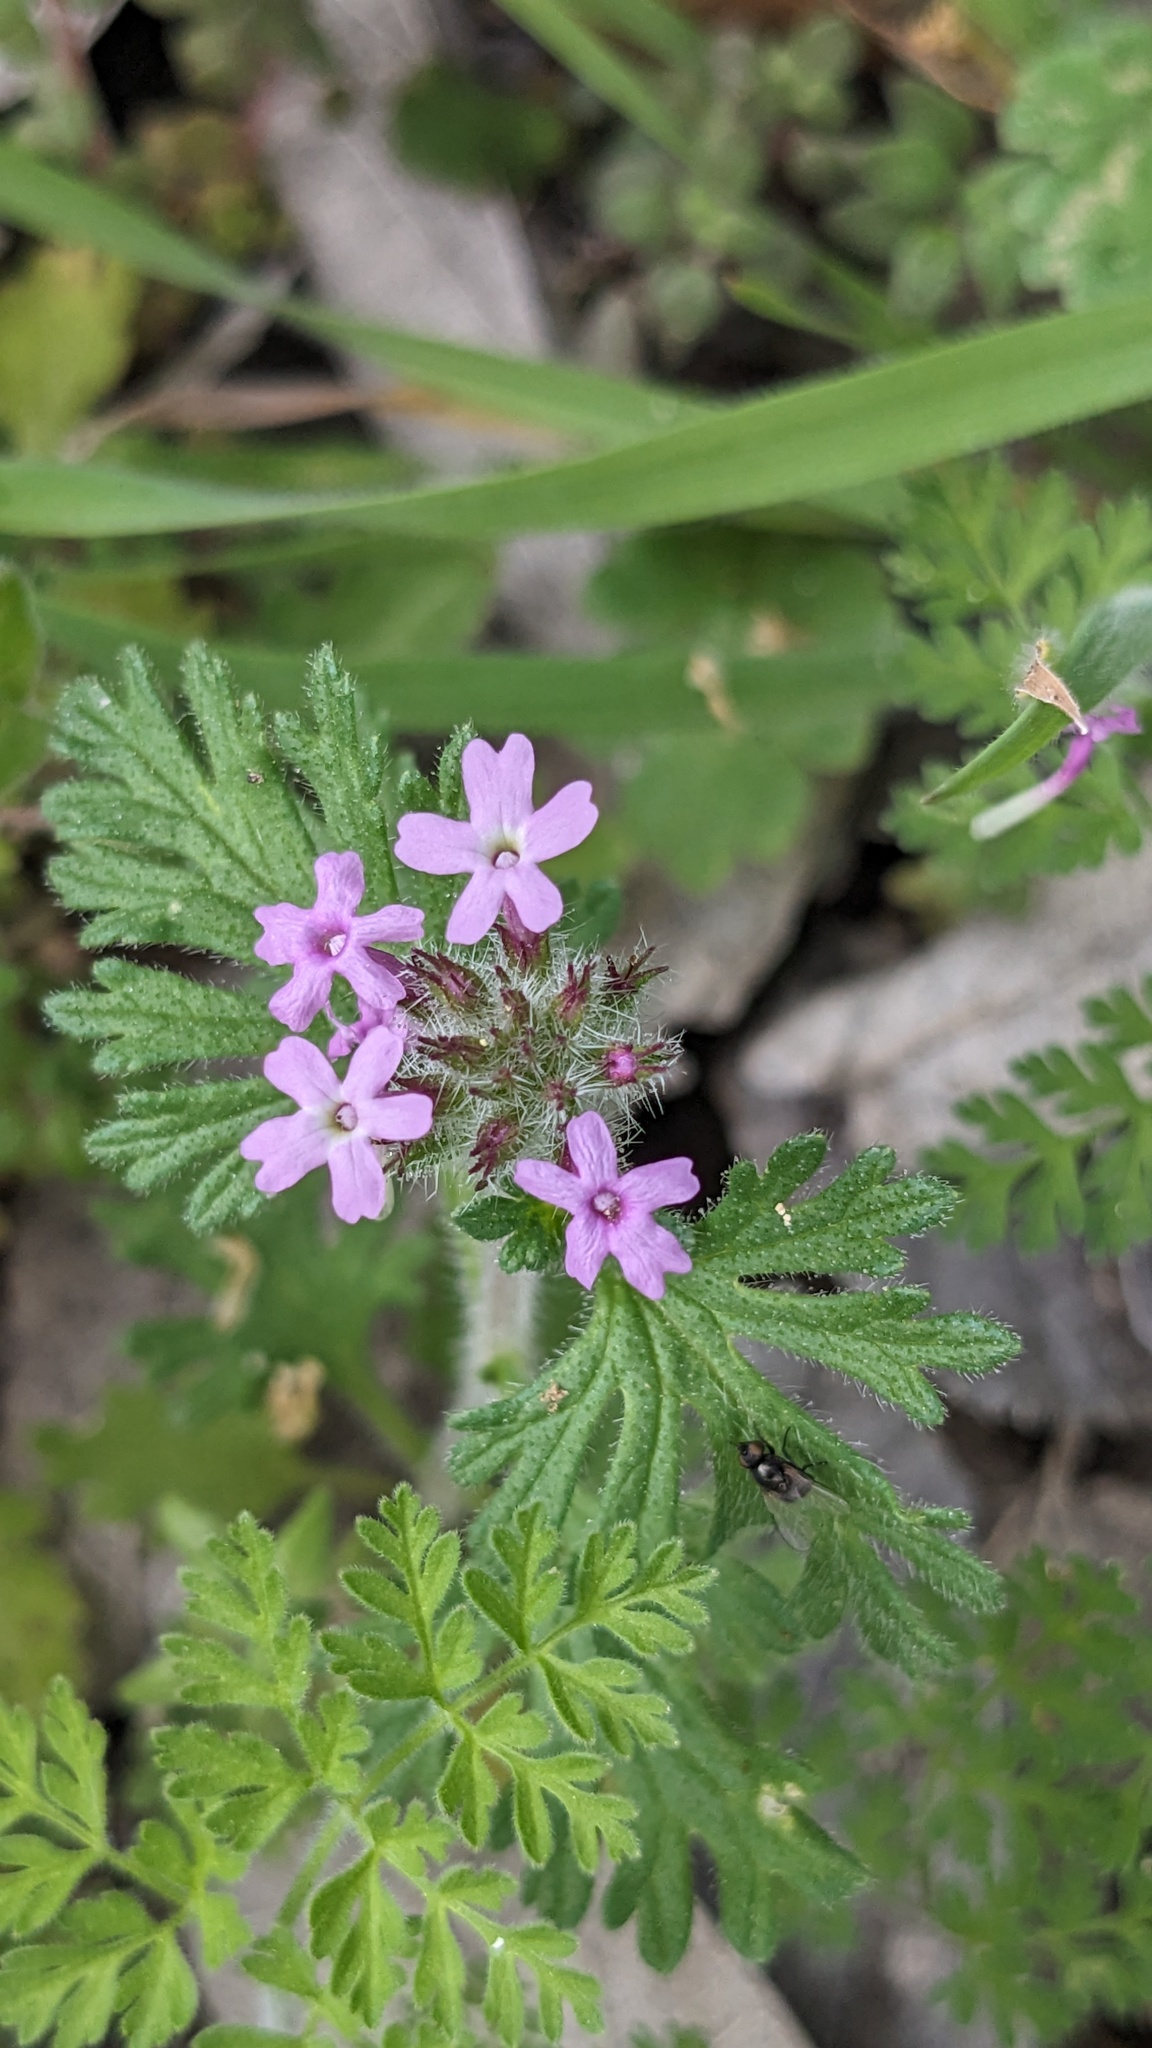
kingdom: Plantae
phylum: Tracheophyta
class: Magnoliopsida
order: Lamiales
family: Verbenaceae
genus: Verbena
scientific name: Verbena pumila
